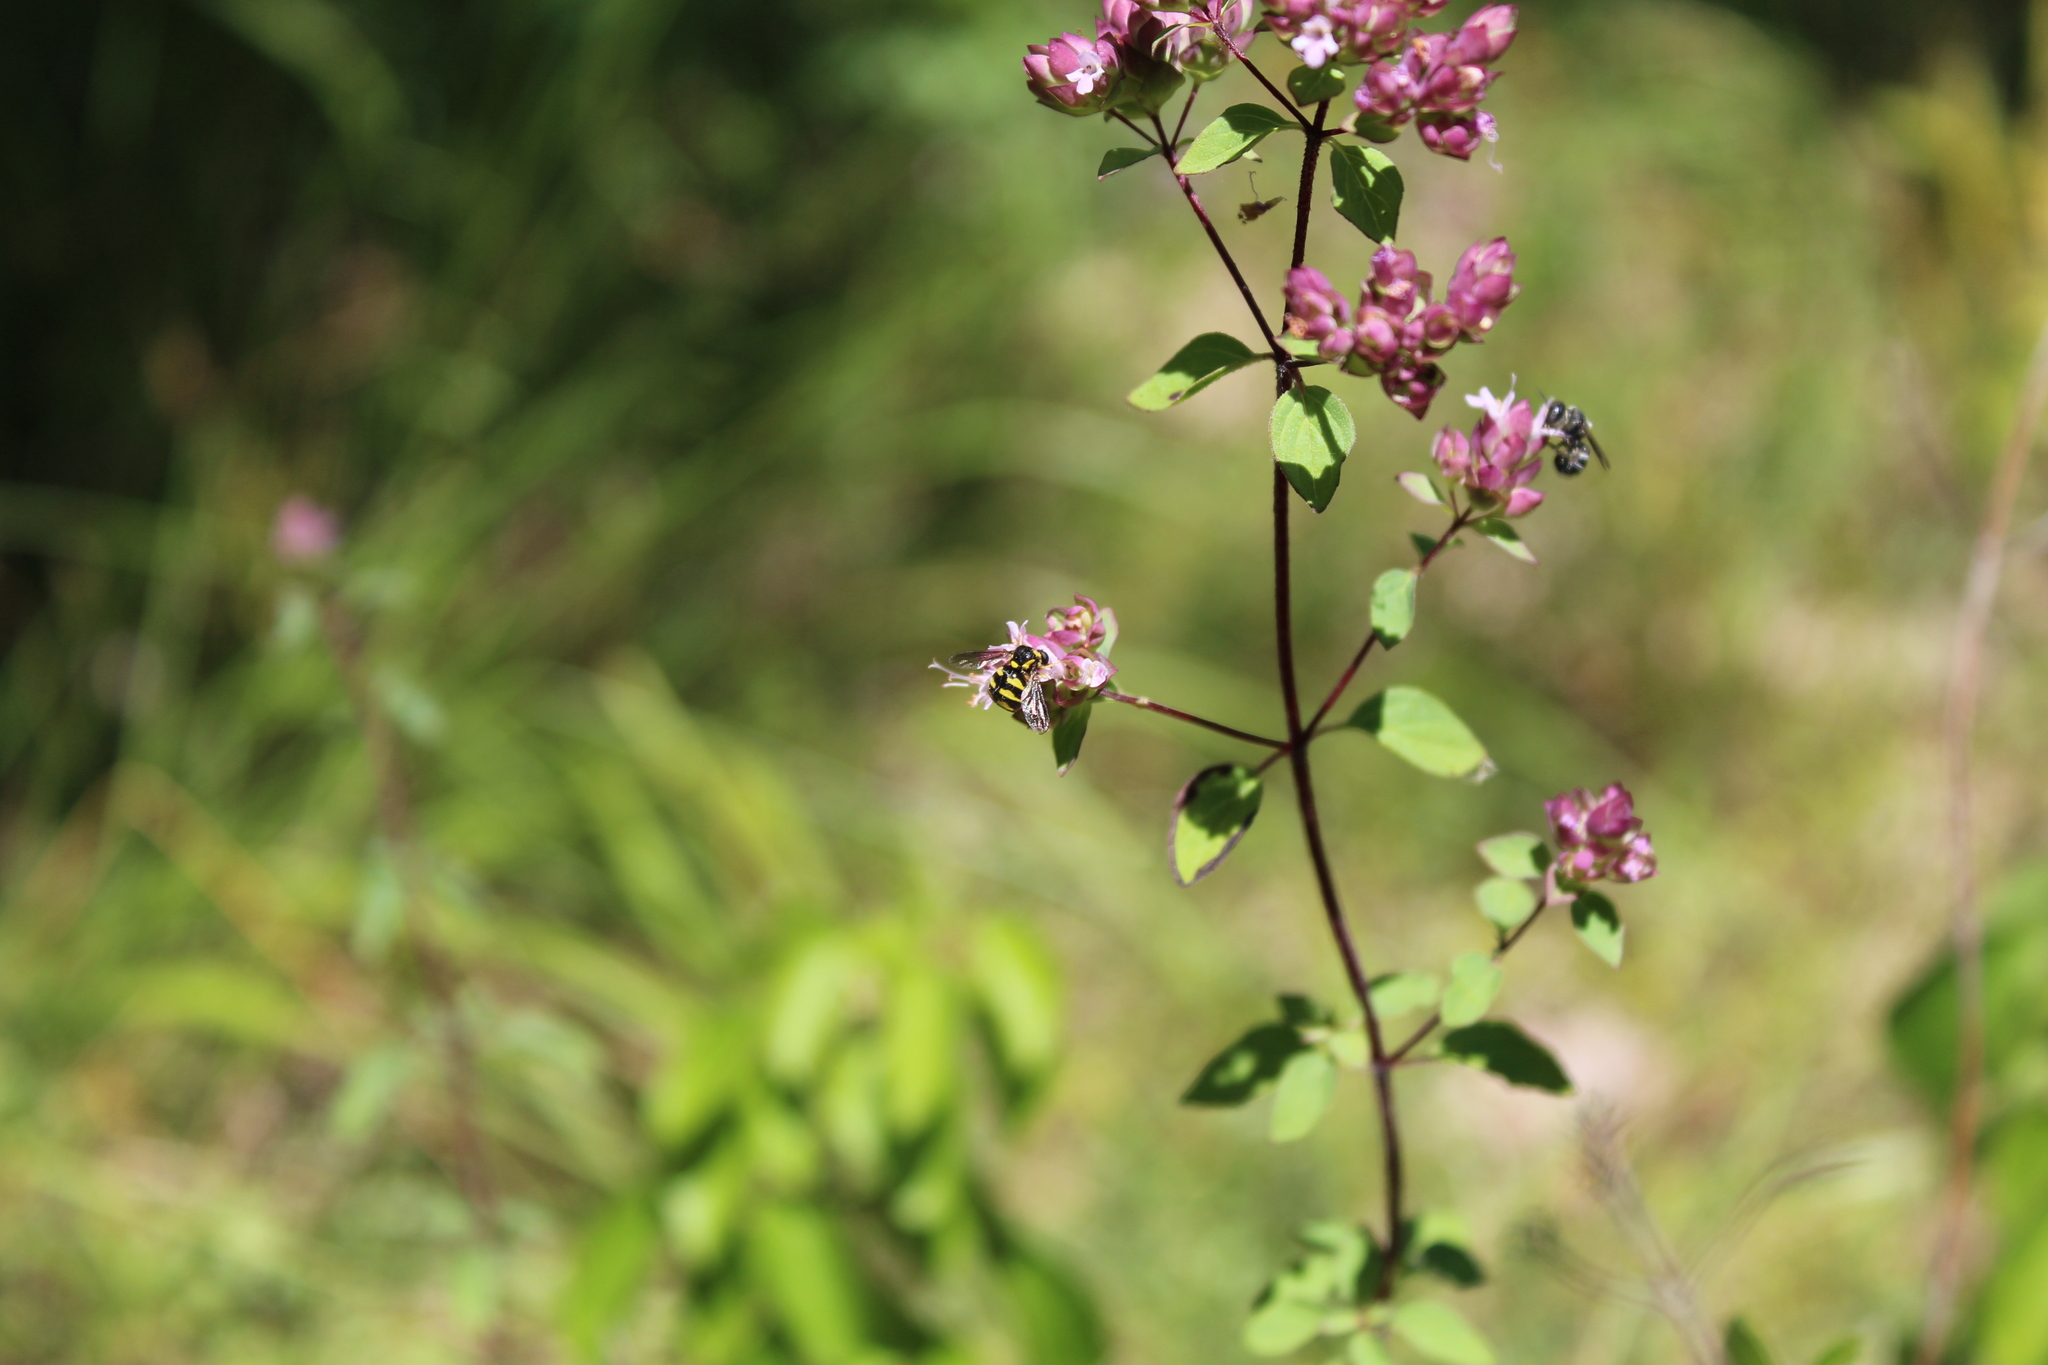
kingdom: Animalia
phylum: Arthropoda
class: Insecta
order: Diptera
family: Acroceridae
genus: Cyrtus
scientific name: Cyrtus gibbus
